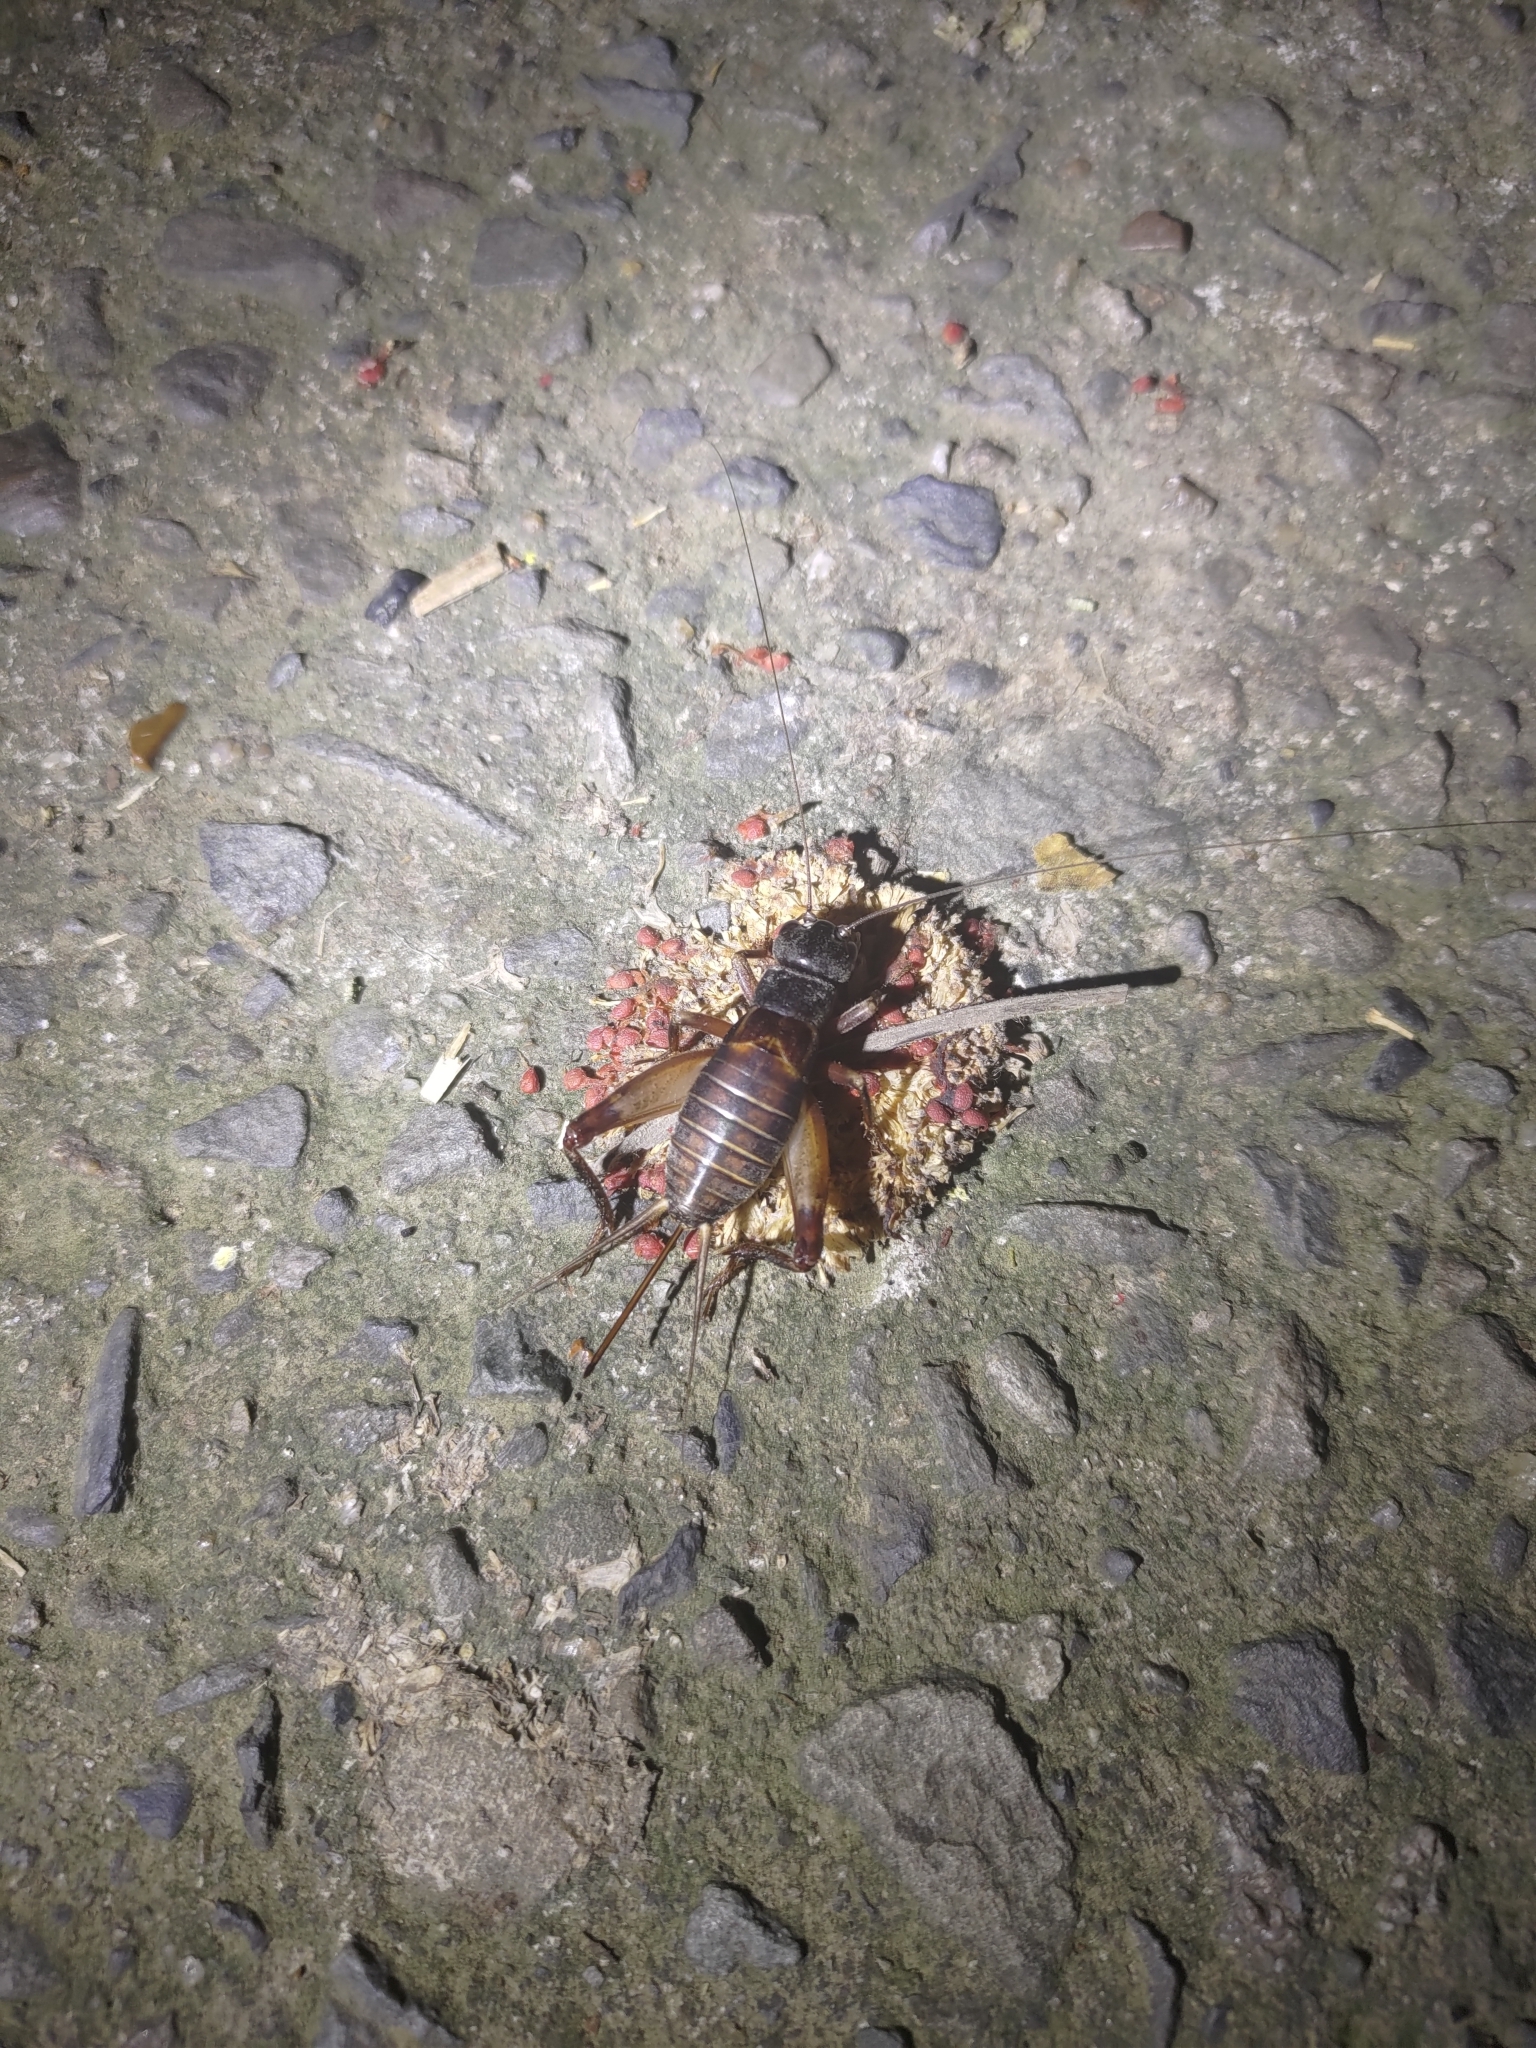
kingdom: Animalia
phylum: Arthropoda
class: Insecta
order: Orthoptera
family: Gryllidae
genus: Duolandrevus
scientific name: Duolandrevus coulonianus
